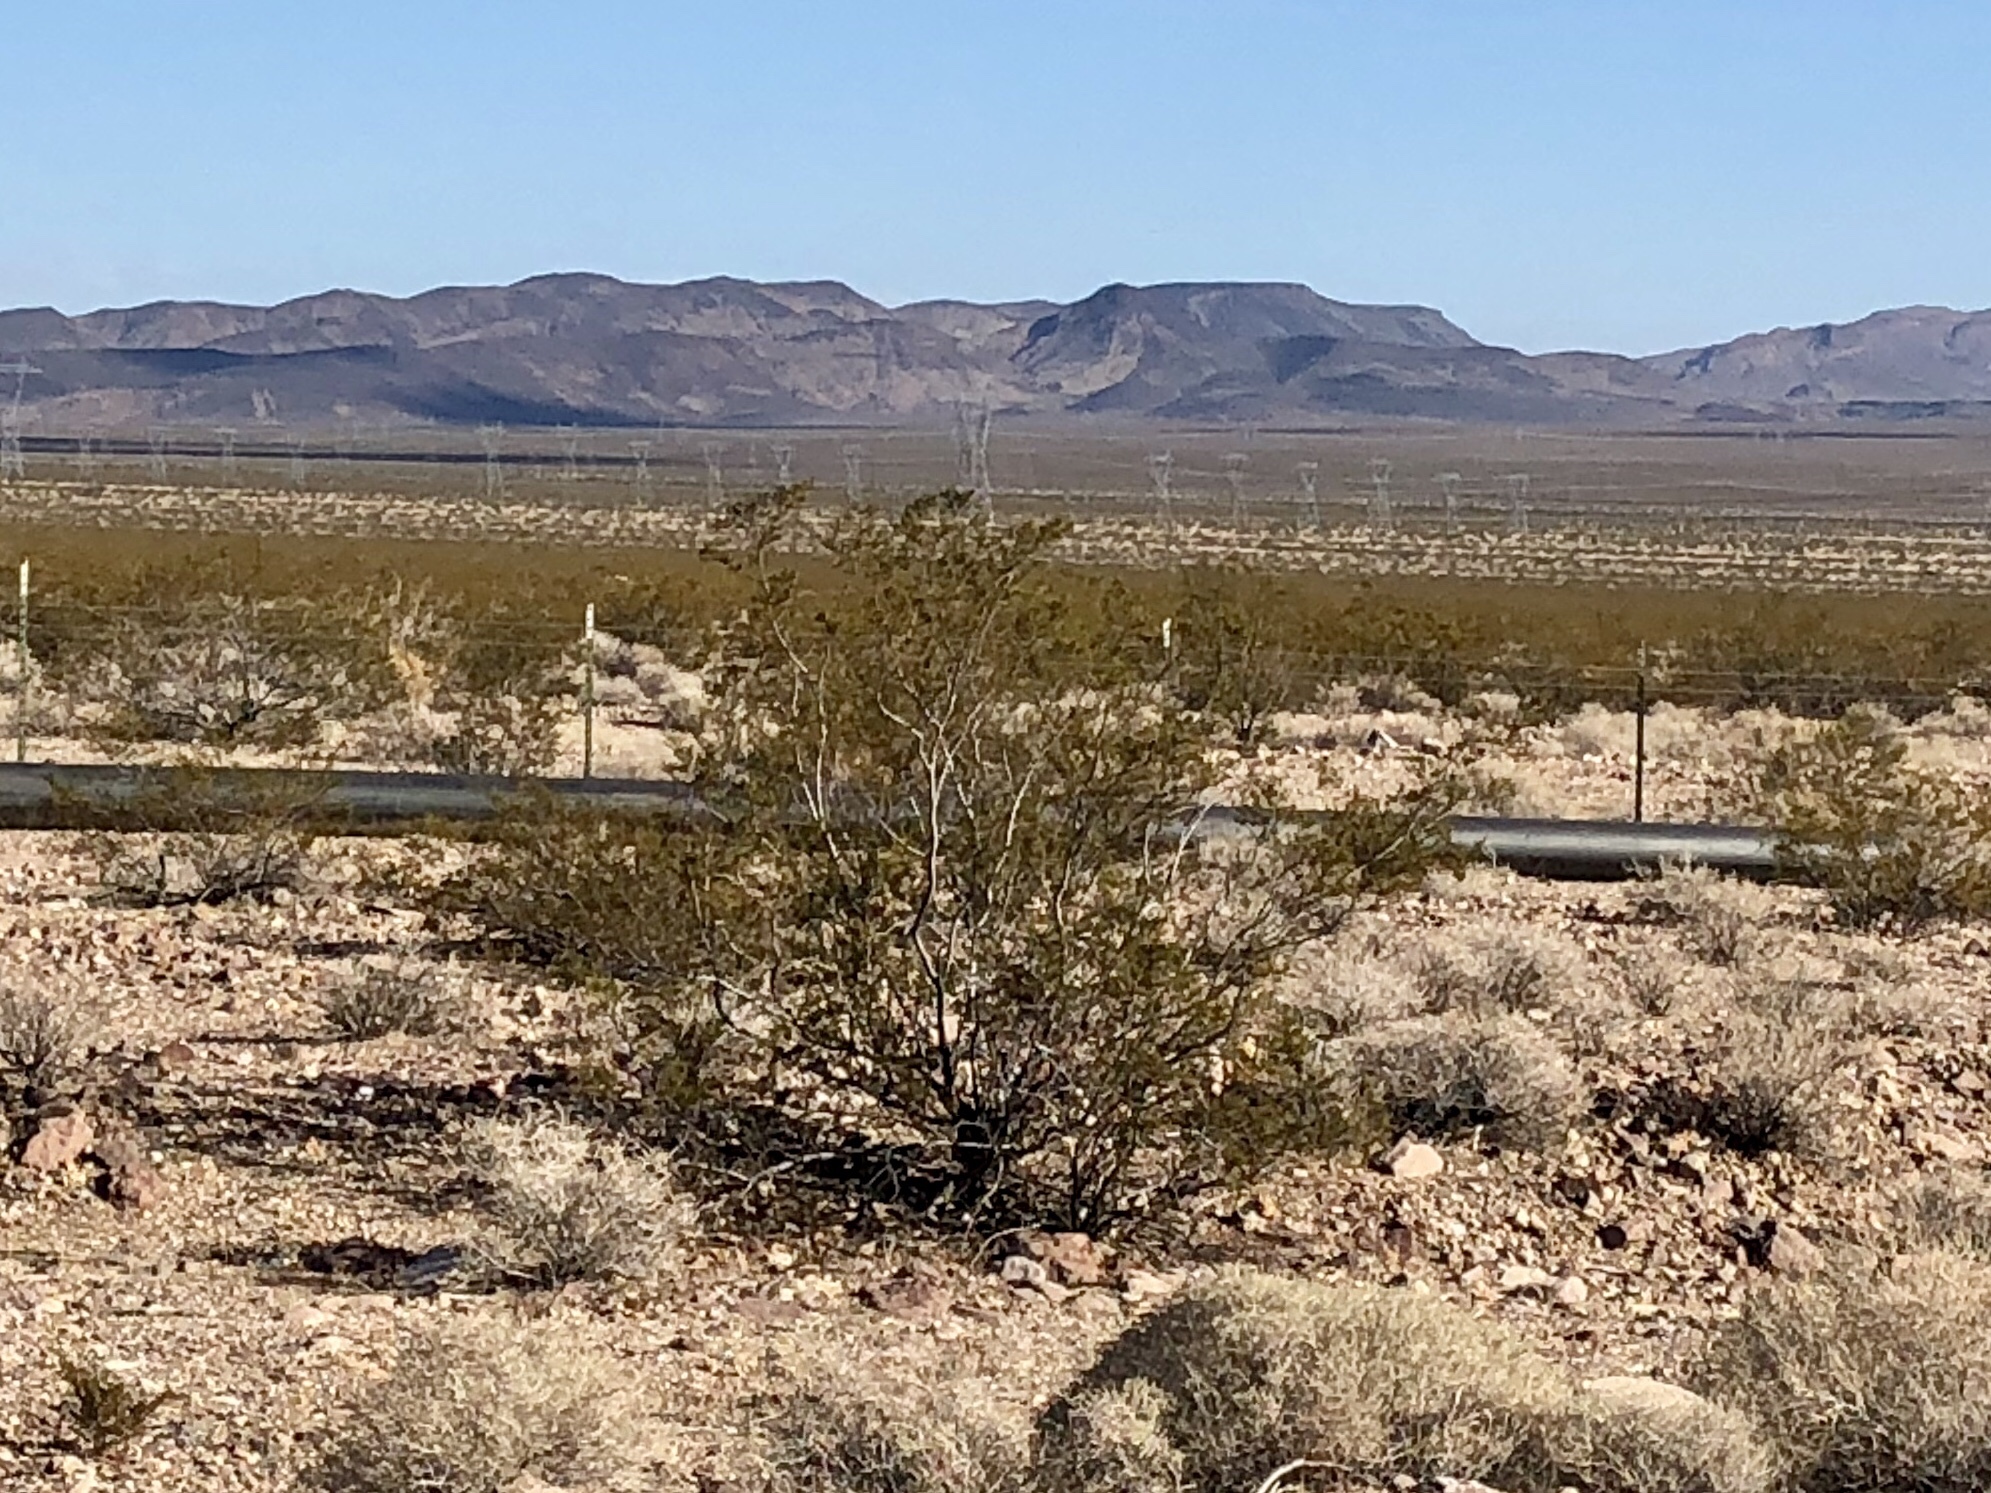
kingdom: Plantae
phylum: Tracheophyta
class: Magnoliopsida
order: Zygophyllales
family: Zygophyllaceae
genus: Larrea
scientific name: Larrea tridentata
